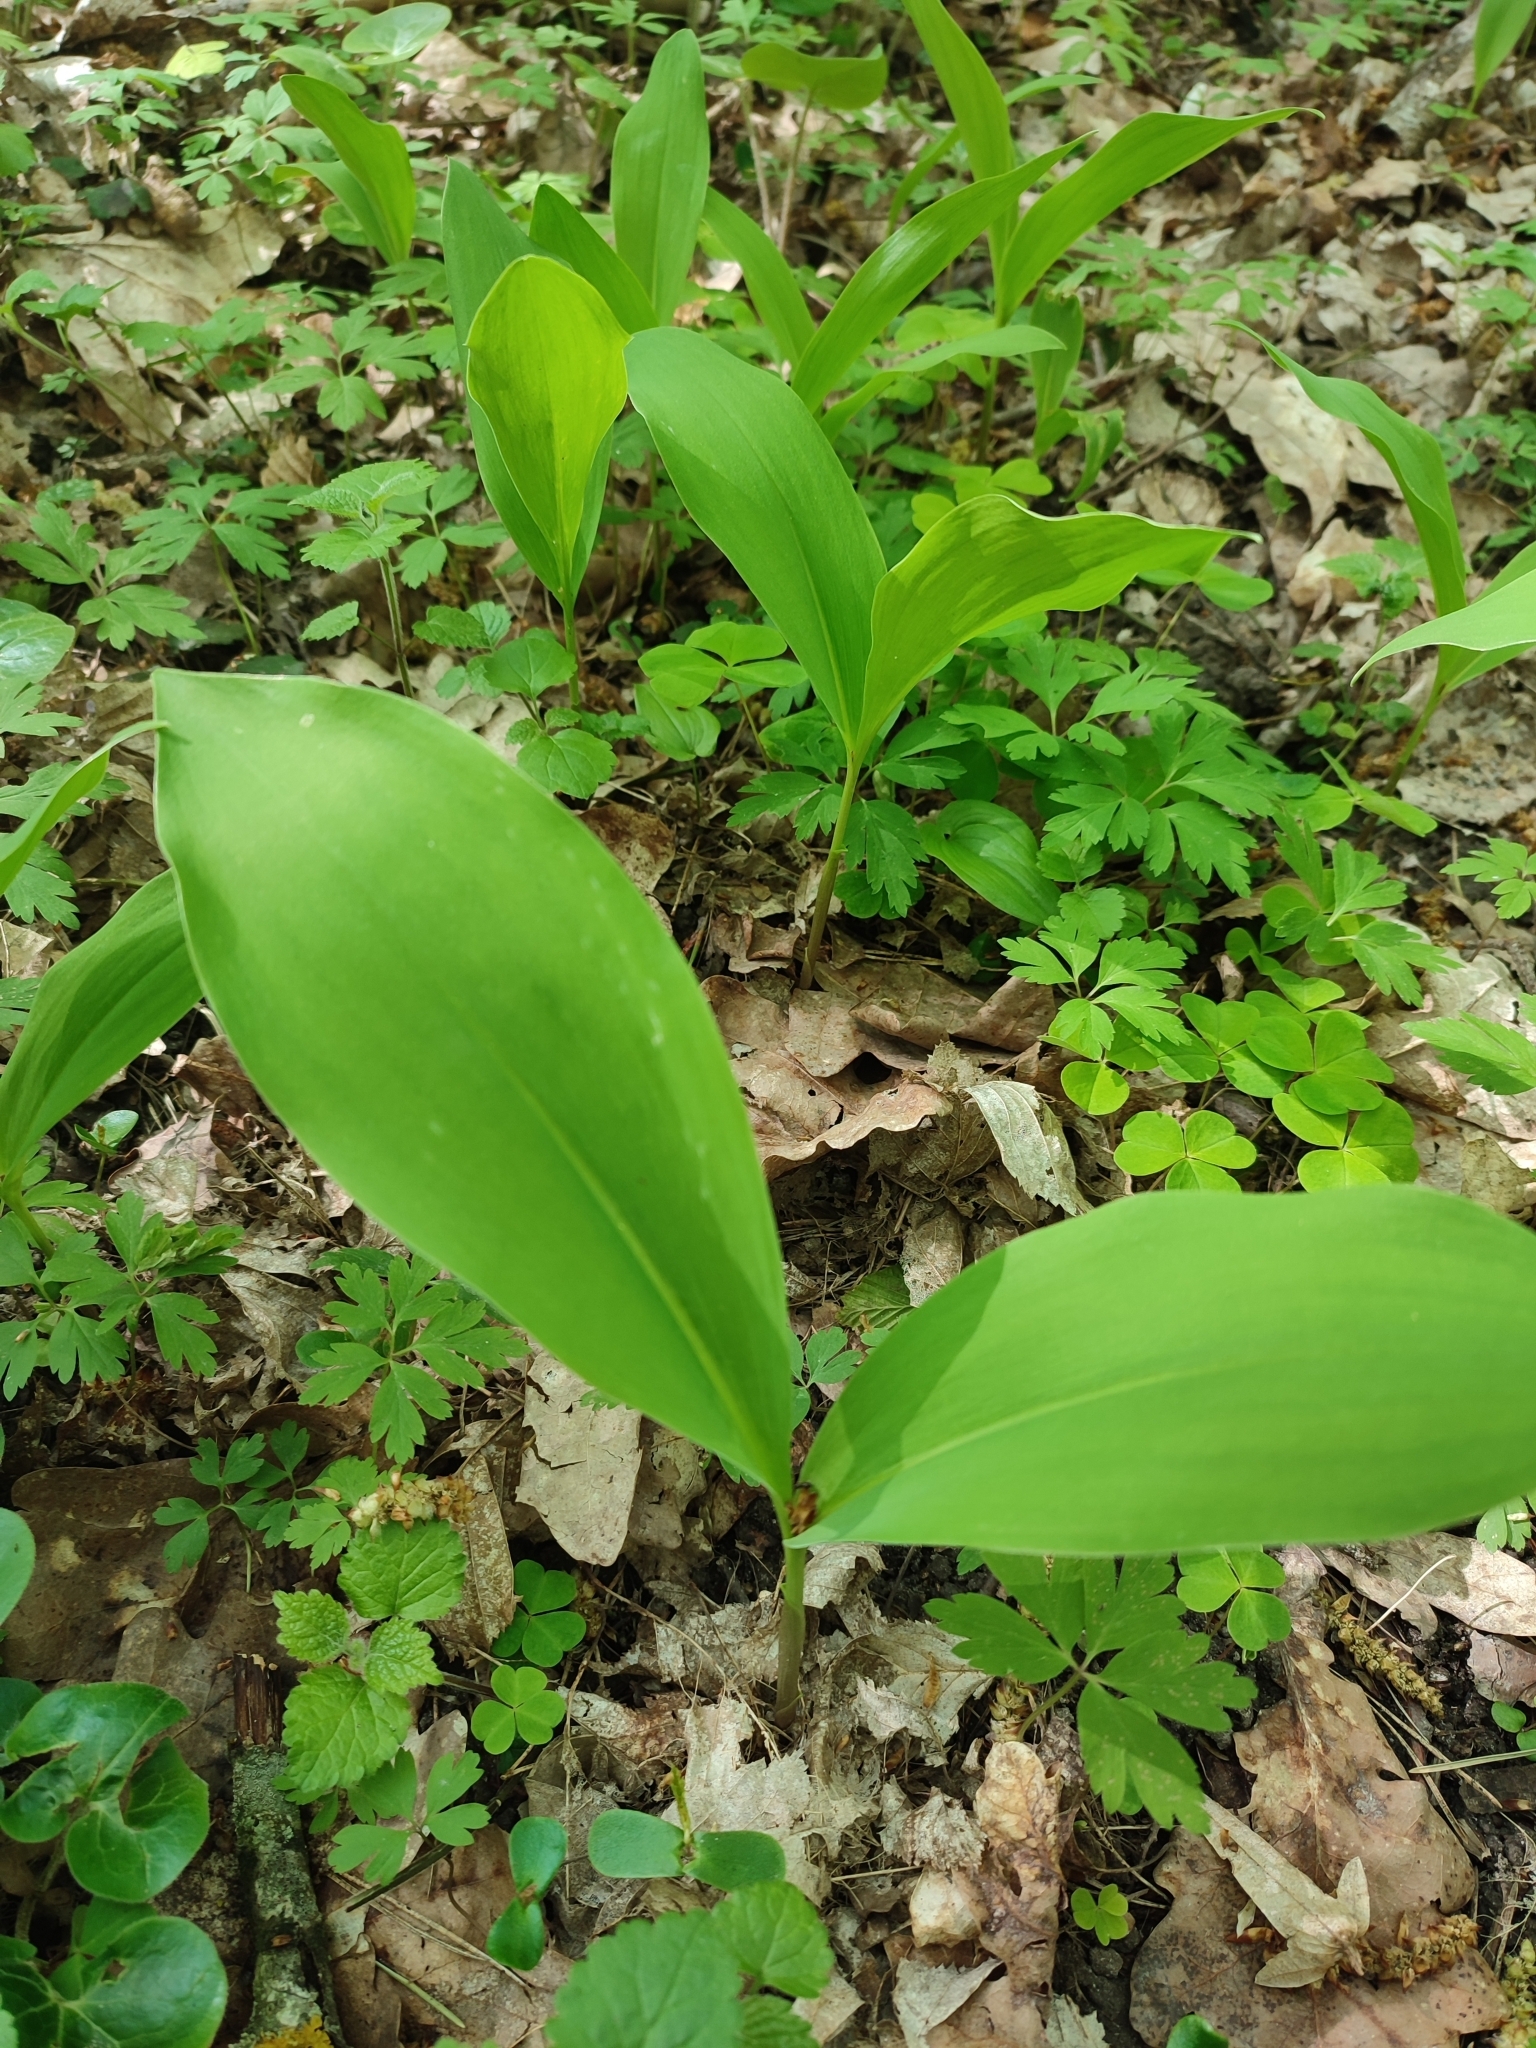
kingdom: Plantae
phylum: Tracheophyta
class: Liliopsida
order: Asparagales
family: Asparagaceae
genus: Convallaria
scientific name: Convallaria majalis
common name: Lily-of-the-valley
